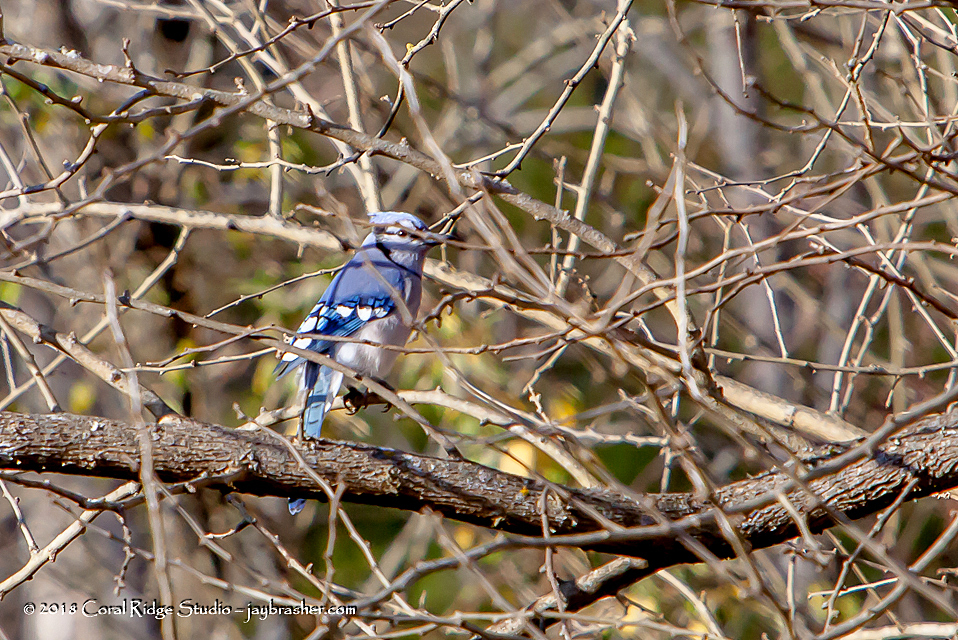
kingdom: Animalia
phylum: Chordata
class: Aves
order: Passeriformes
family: Corvidae
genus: Cyanocitta
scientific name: Cyanocitta cristata
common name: Blue jay
